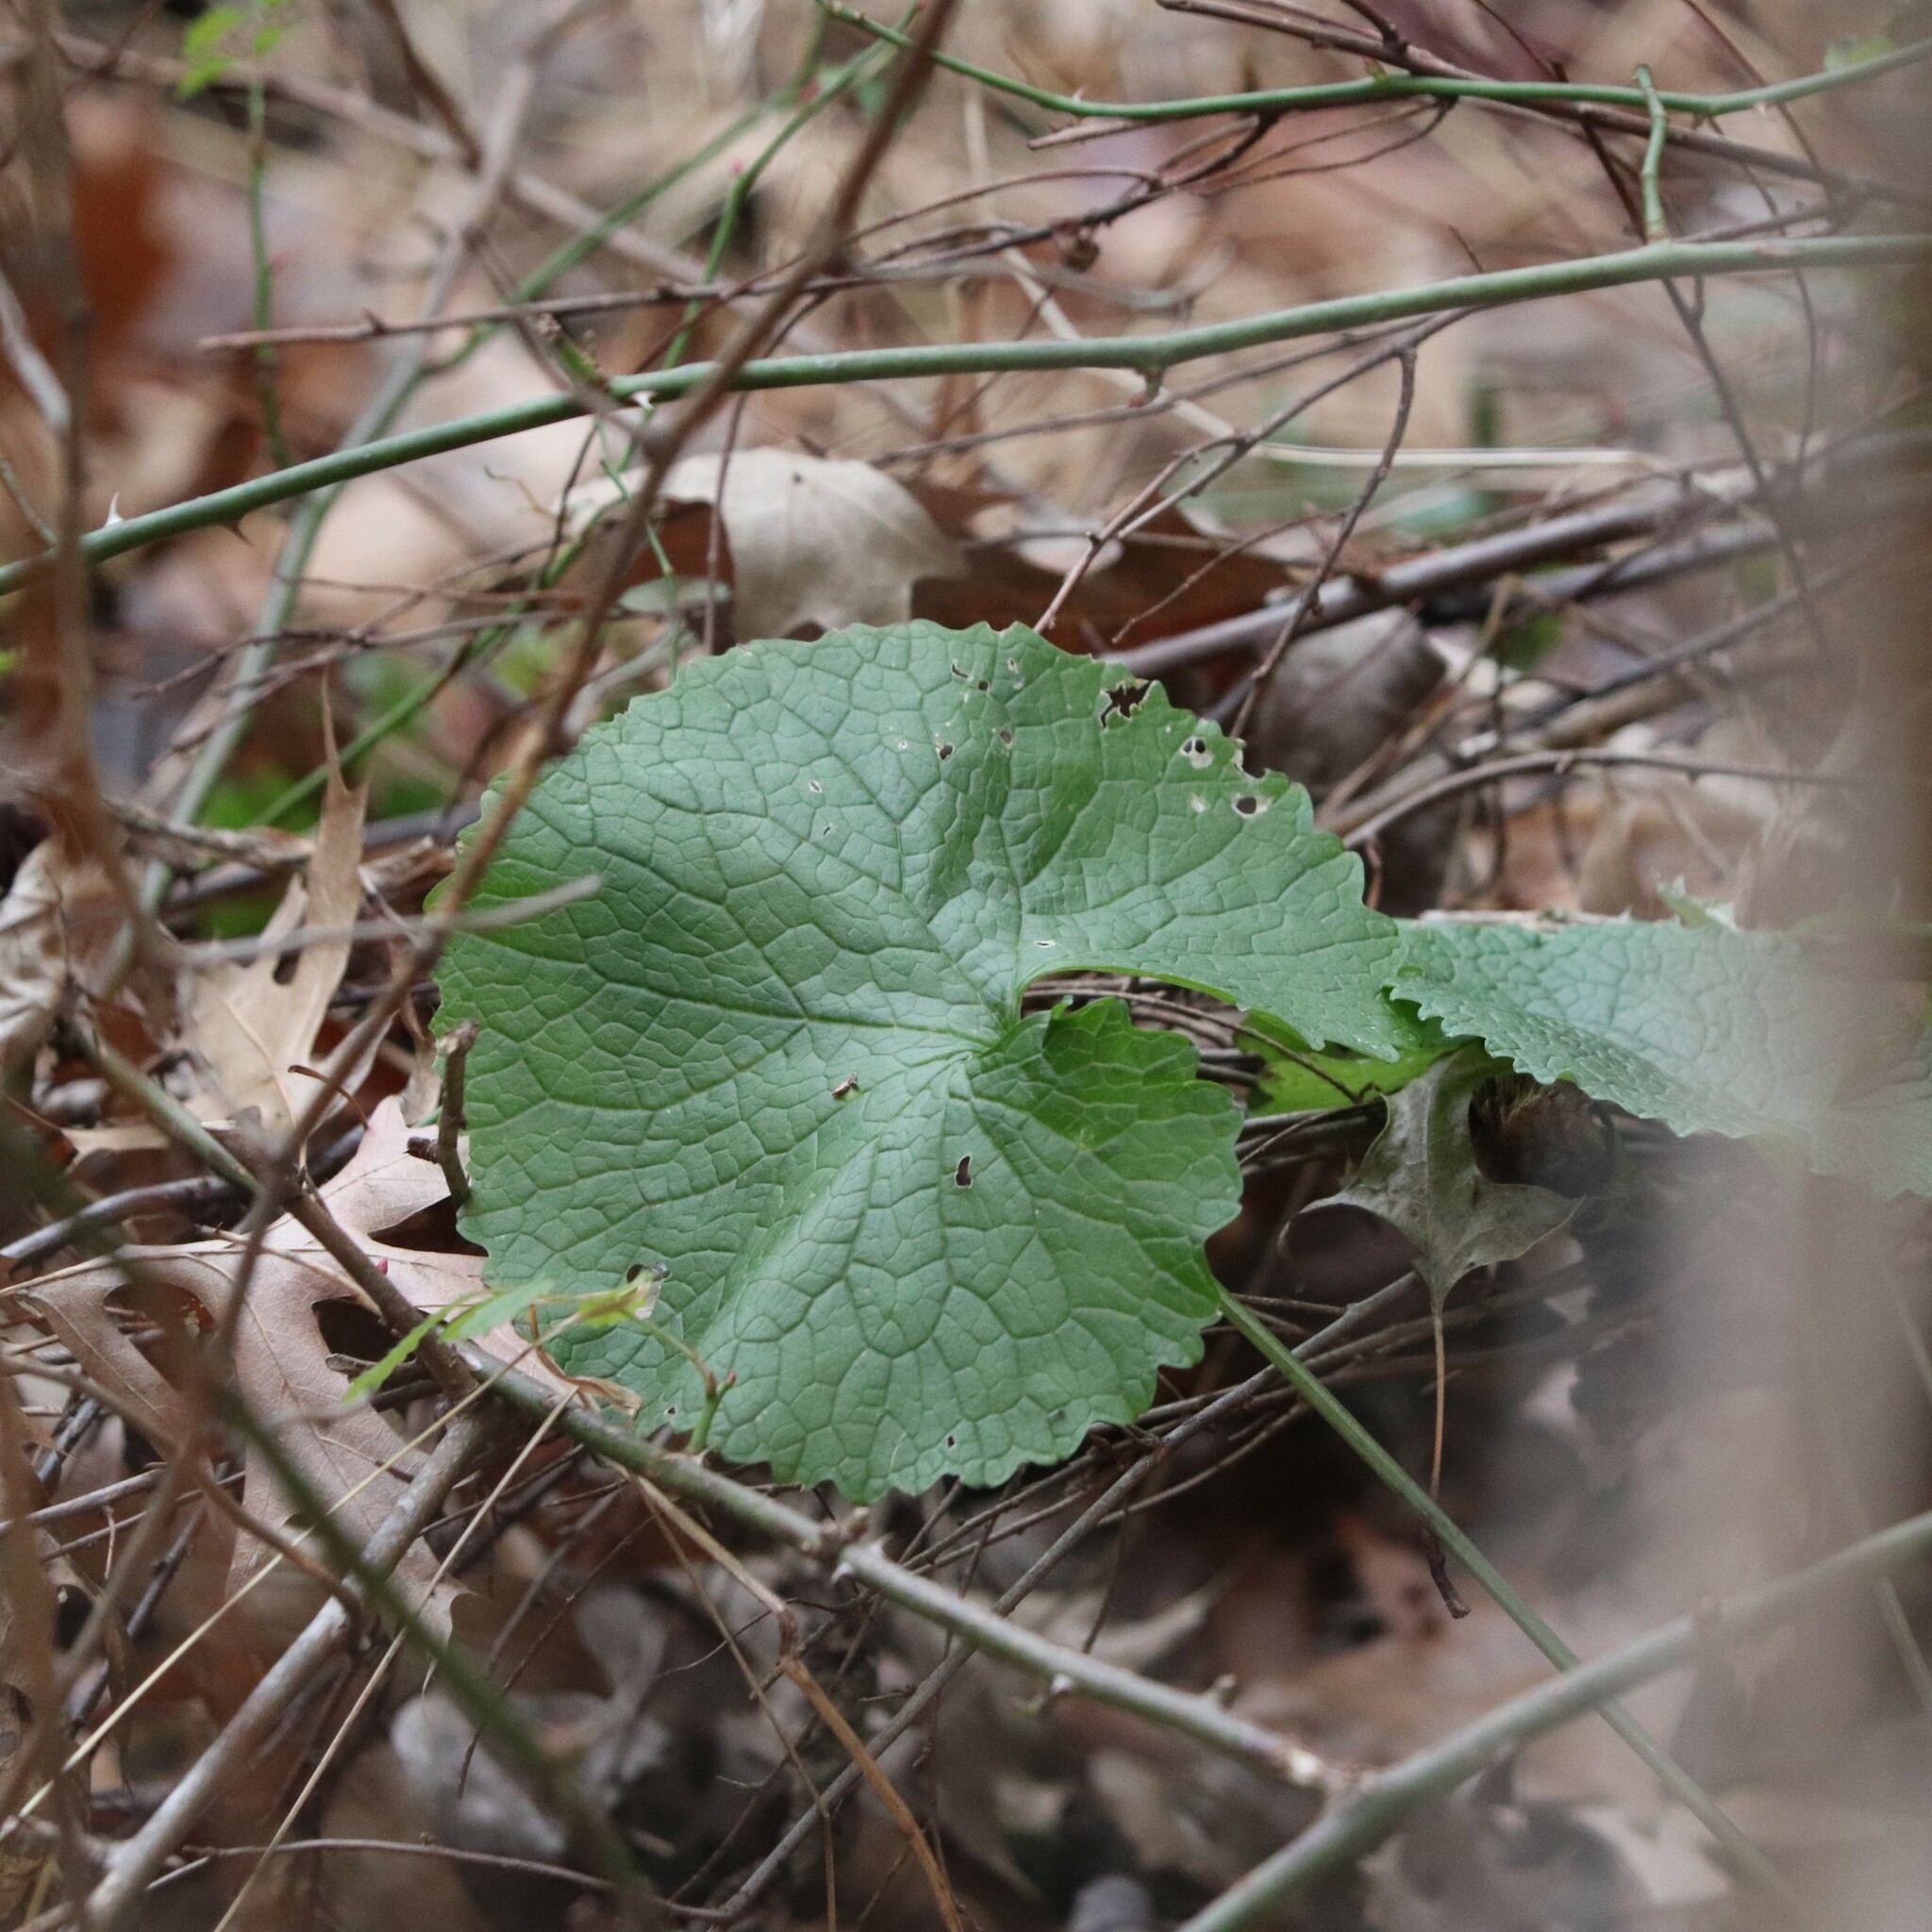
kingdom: Plantae
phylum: Tracheophyta
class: Magnoliopsida
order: Brassicales
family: Brassicaceae
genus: Alliaria
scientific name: Alliaria petiolata
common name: Garlic mustard
